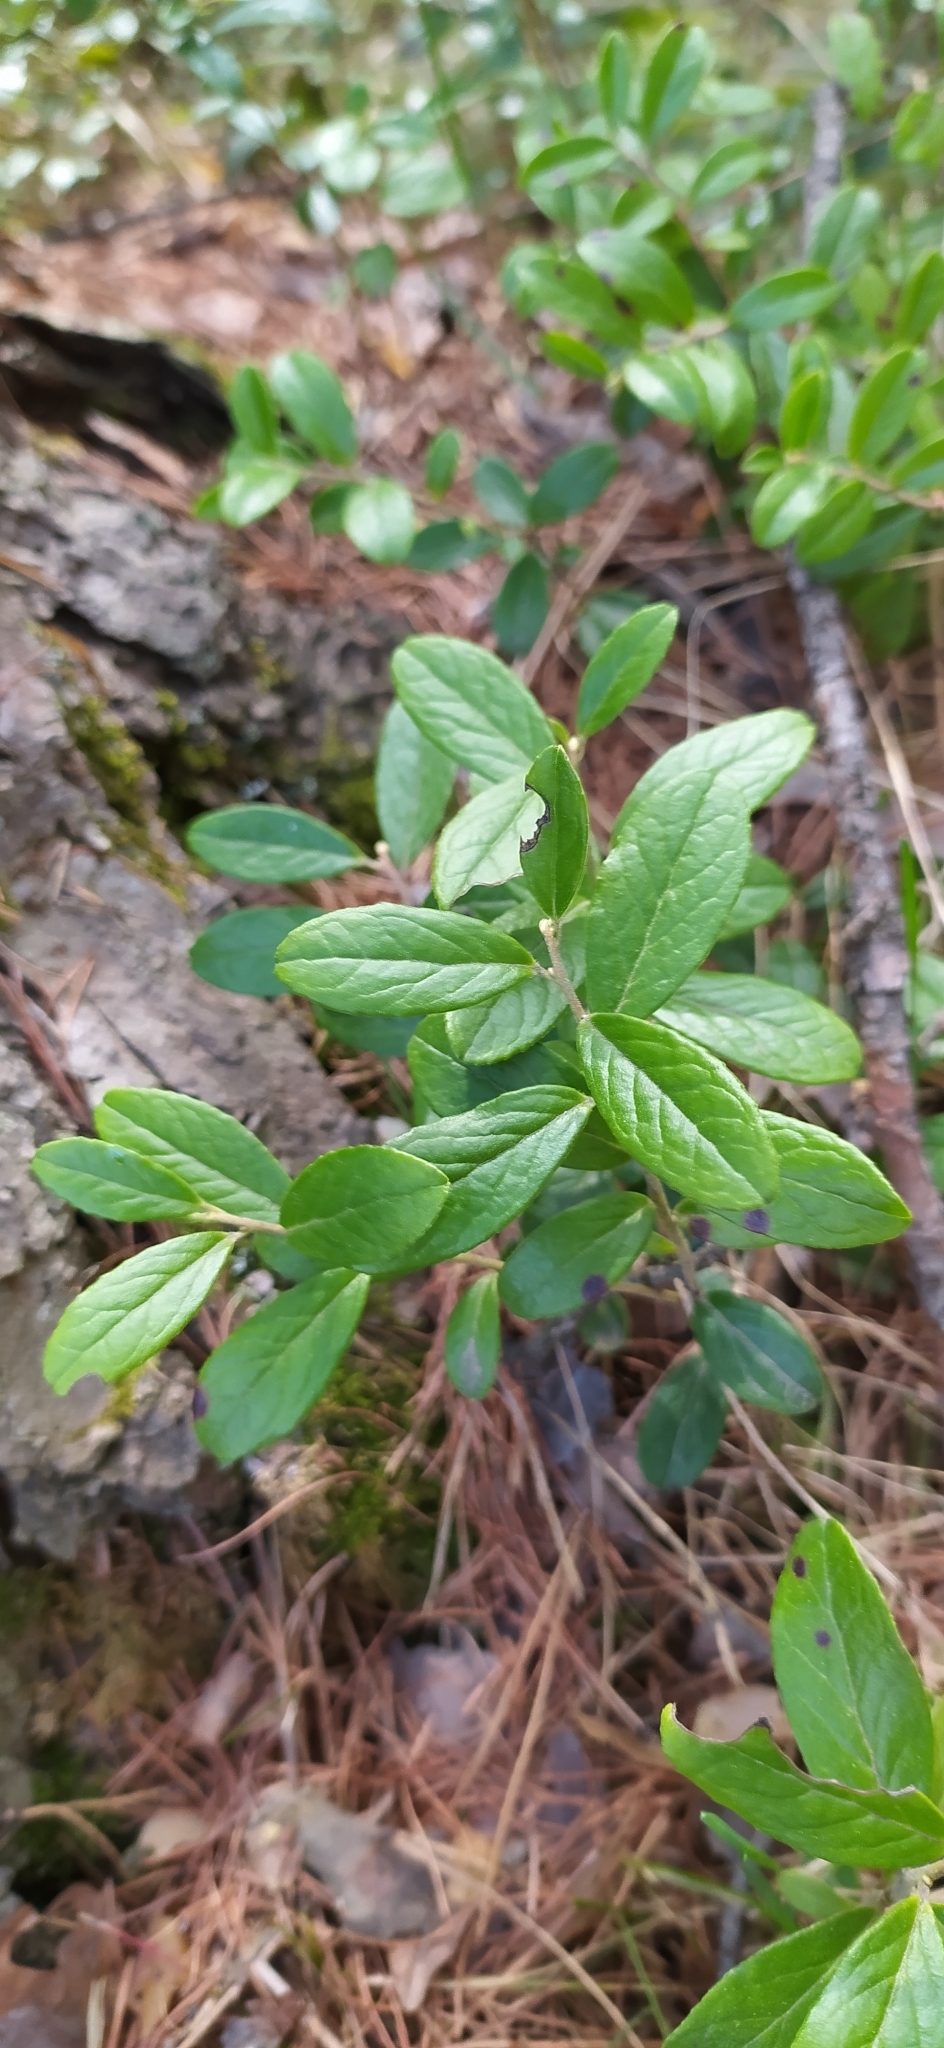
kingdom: Plantae
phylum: Tracheophyta
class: Magnoliopsida
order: Ericales
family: Ericaceae
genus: Vaccinium
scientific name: Vaccinium vitis-idaea
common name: Cowberry
